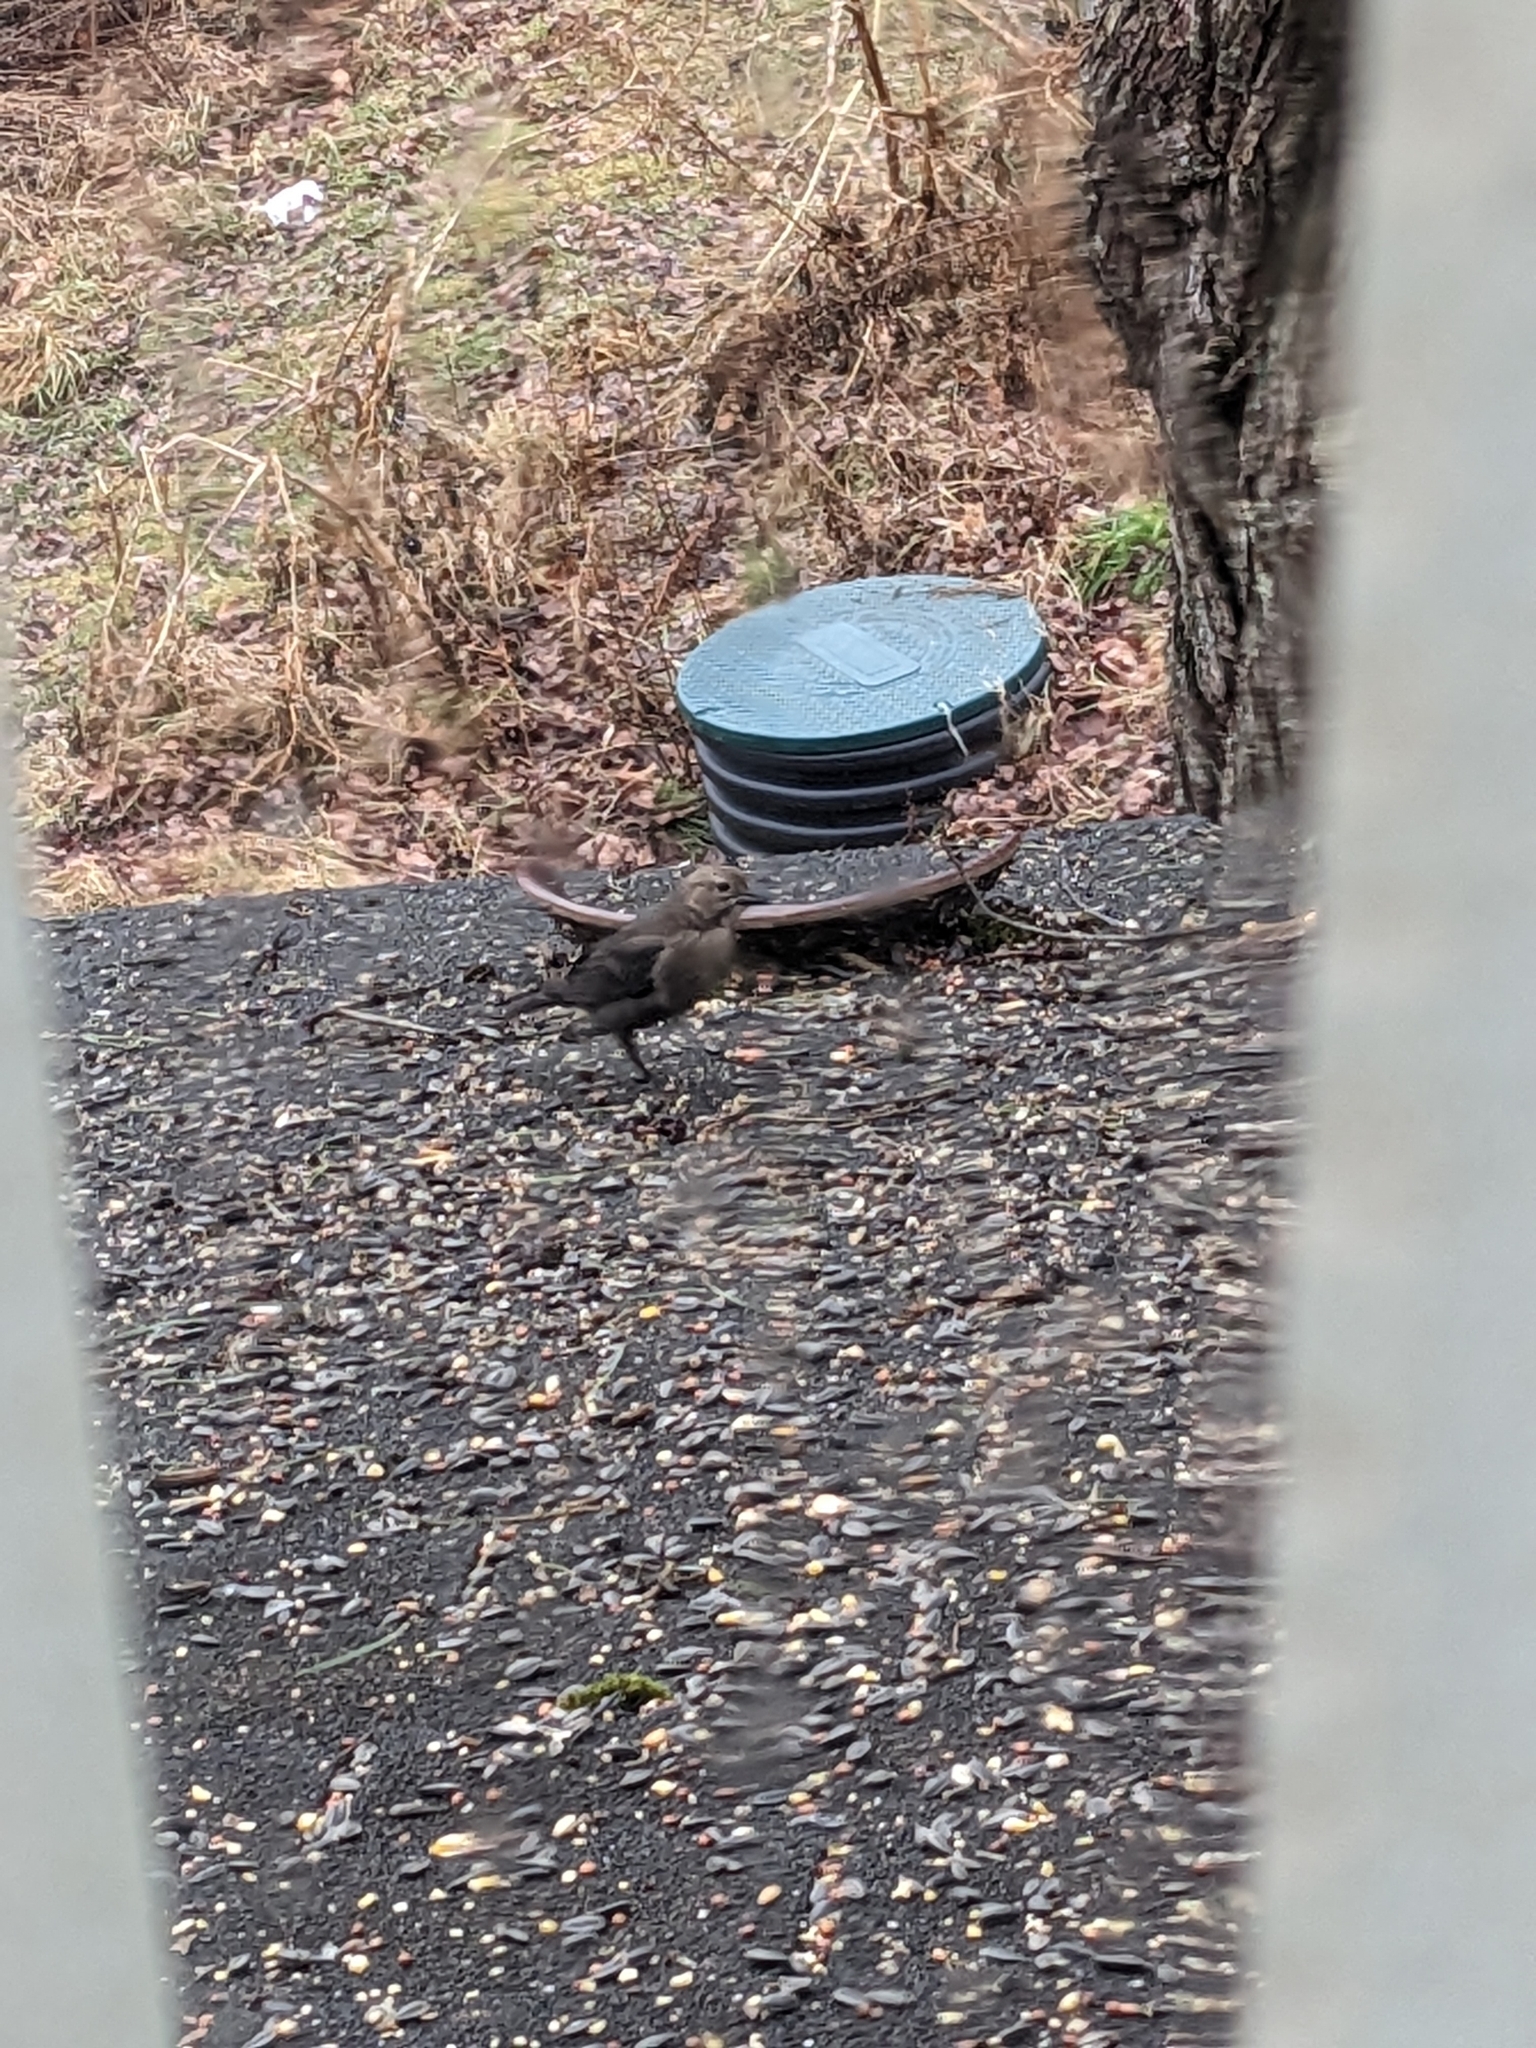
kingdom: Animalia
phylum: Chordata
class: Aves
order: Passeriformes
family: Icteridae
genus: Molothrus
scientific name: Molothrus ater
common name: Brown-headed cowbird
